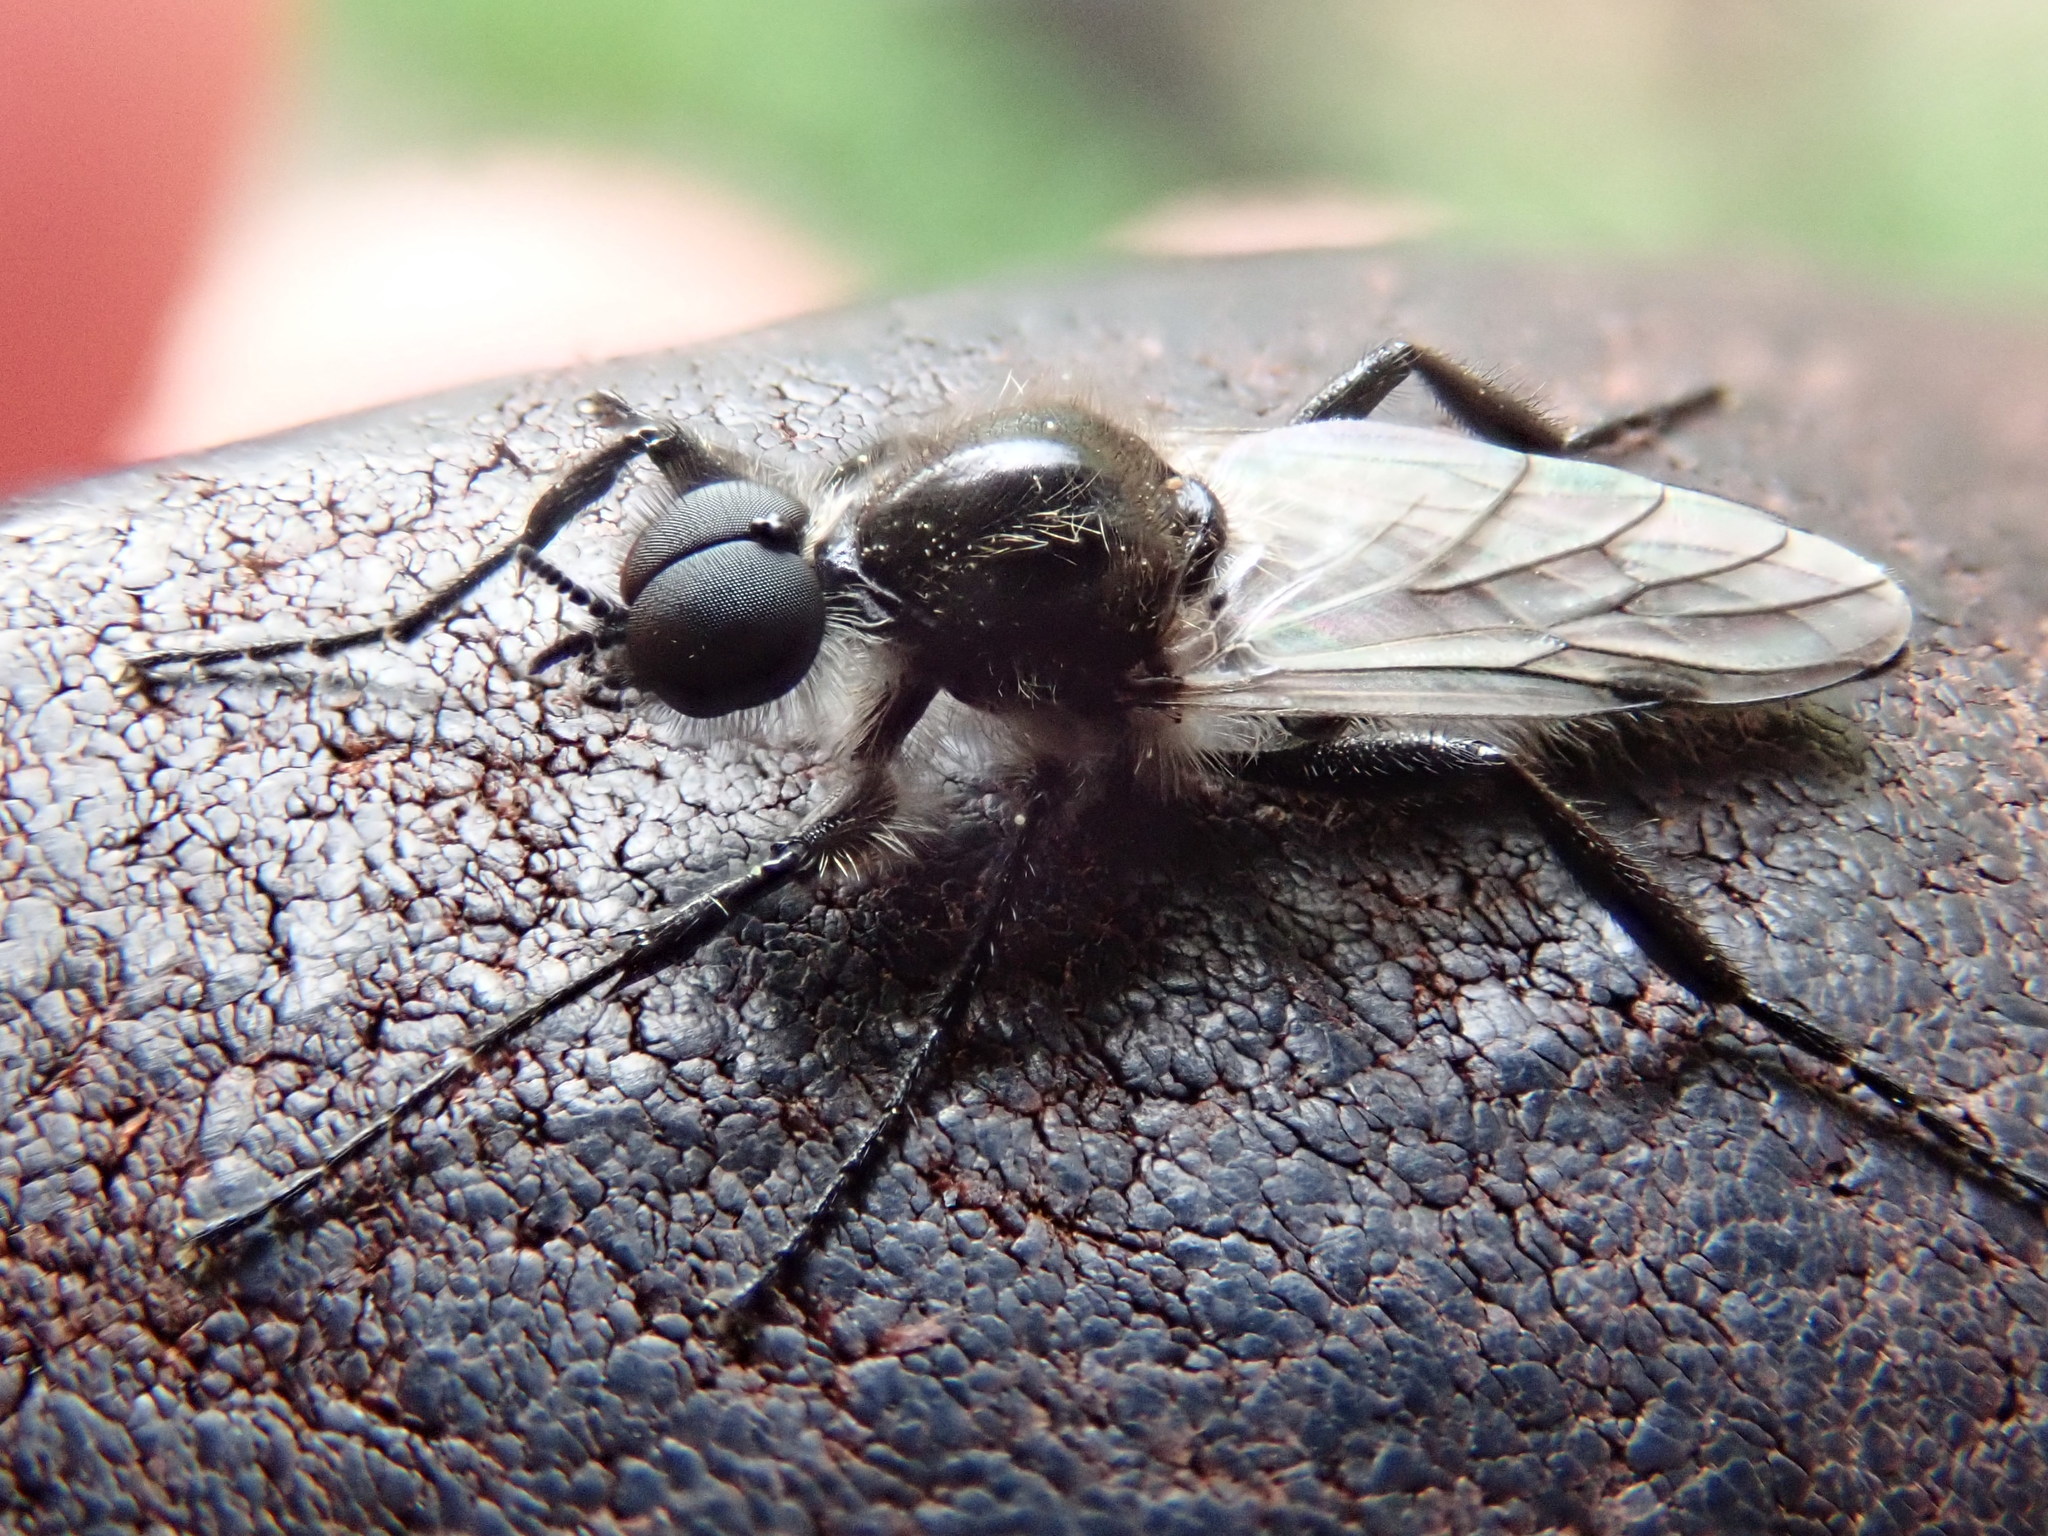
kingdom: Animalia
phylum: Arthropoda
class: Insecta
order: Diptera
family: Bibionidae
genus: Bibio
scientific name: Bibio albipennis
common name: White-winged march fly
